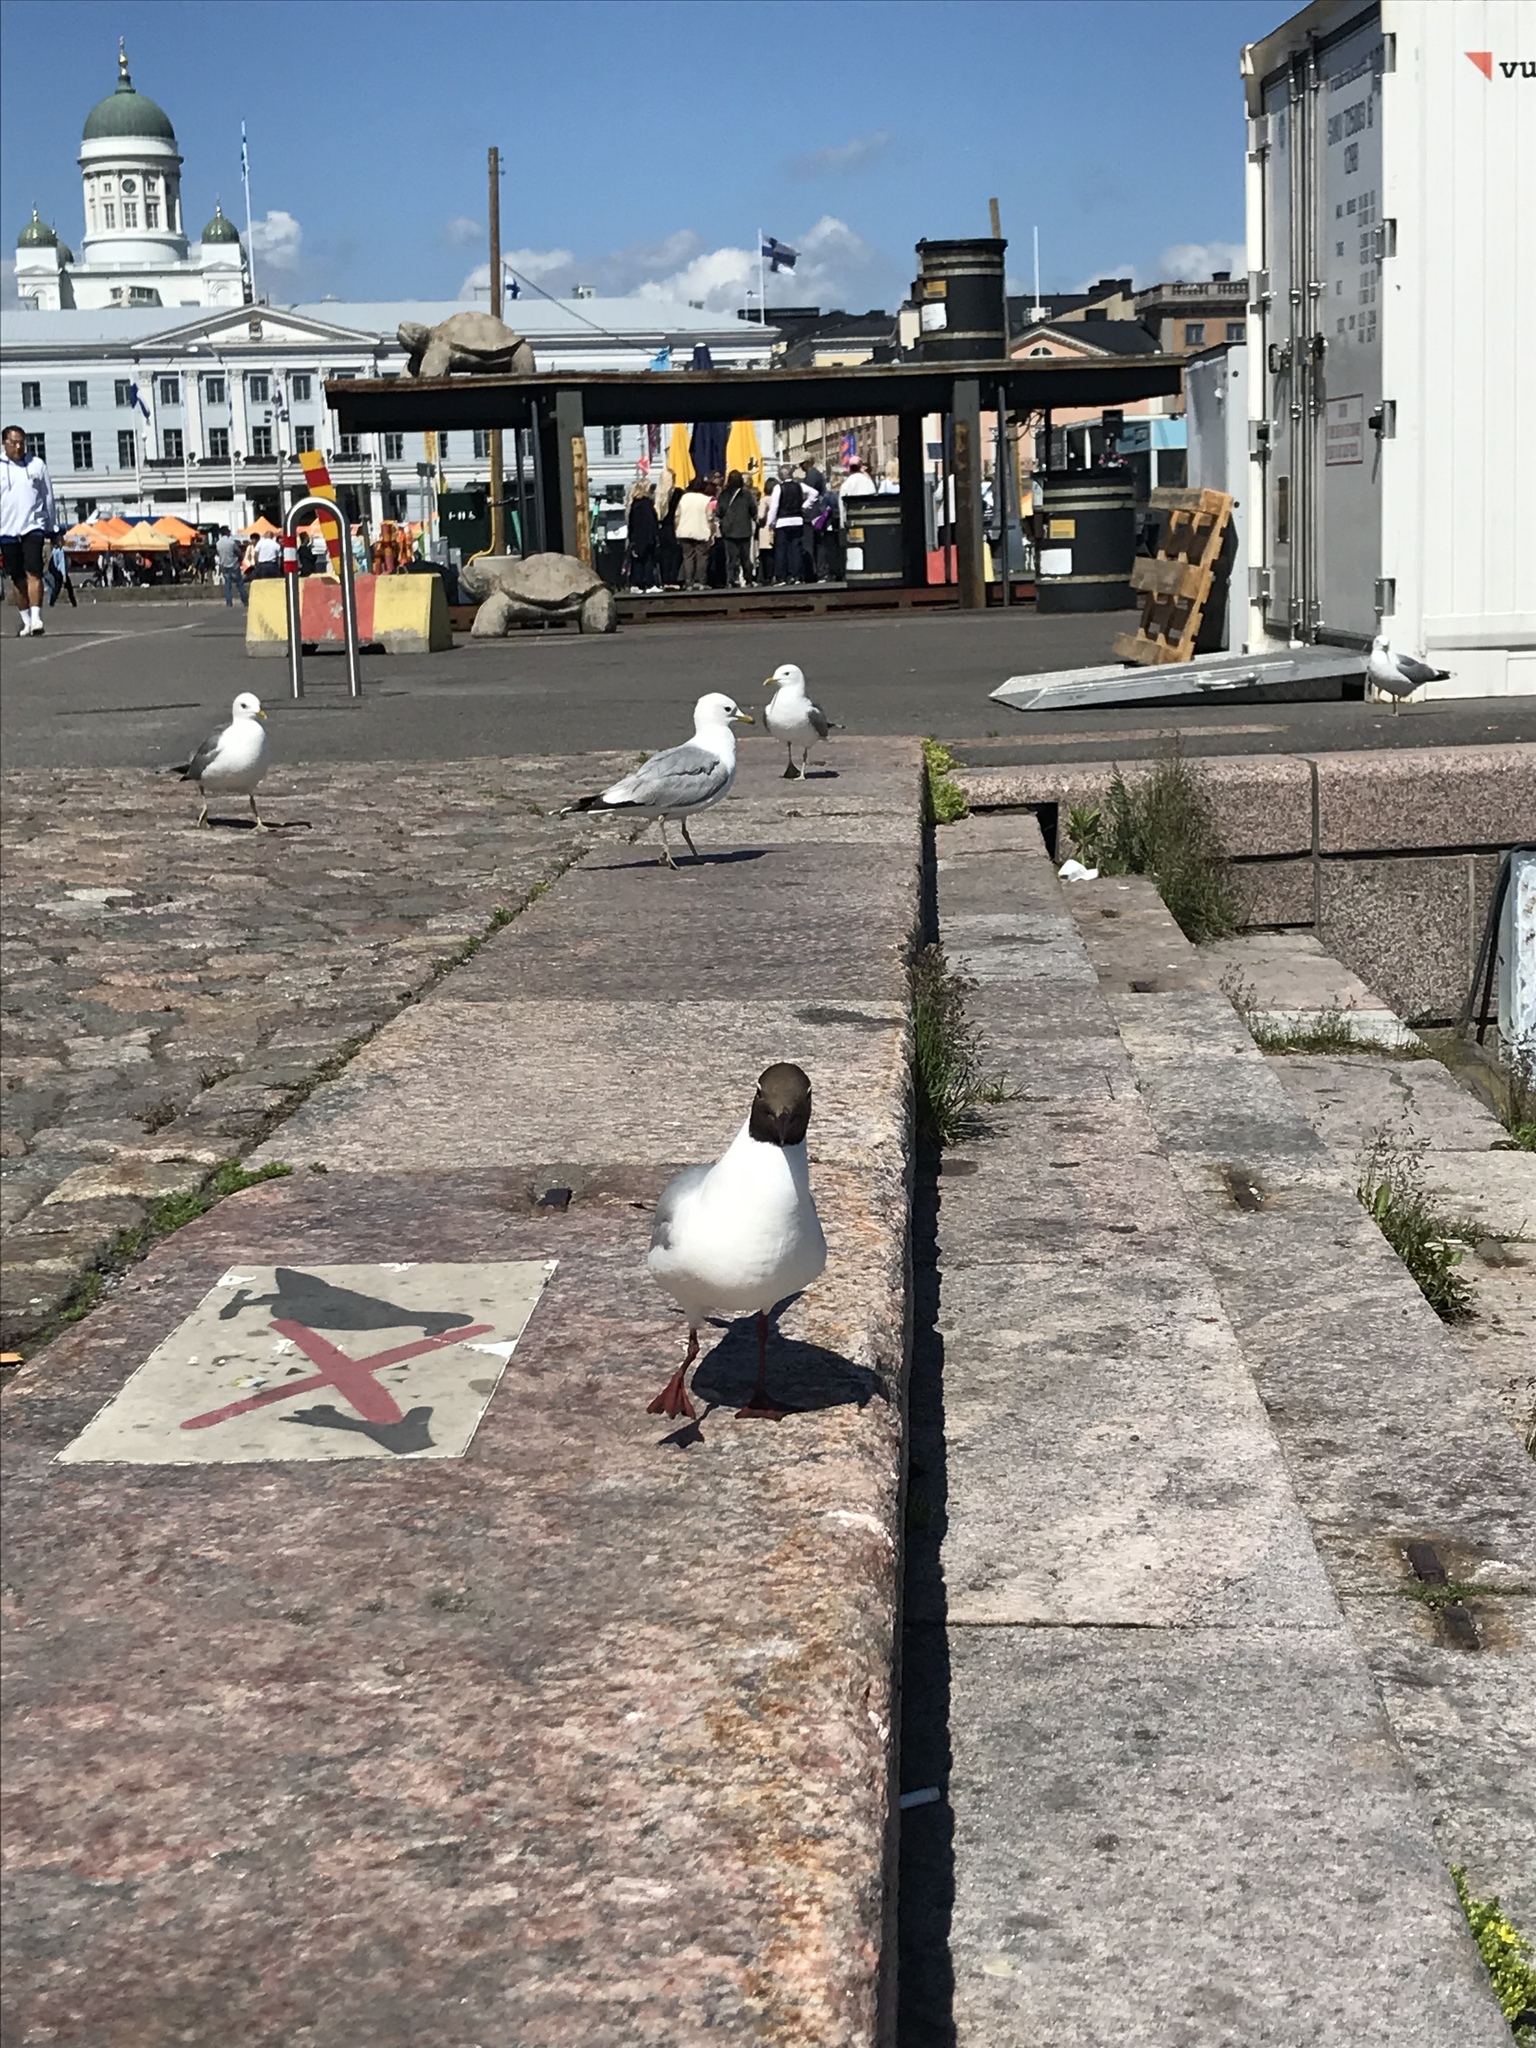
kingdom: Animalia
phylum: Chordata
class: Aves
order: Charadriiformes
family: Laridae
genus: Chroicocephalus
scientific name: Chroicocephalus ridibundus
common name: Black-headed gull
